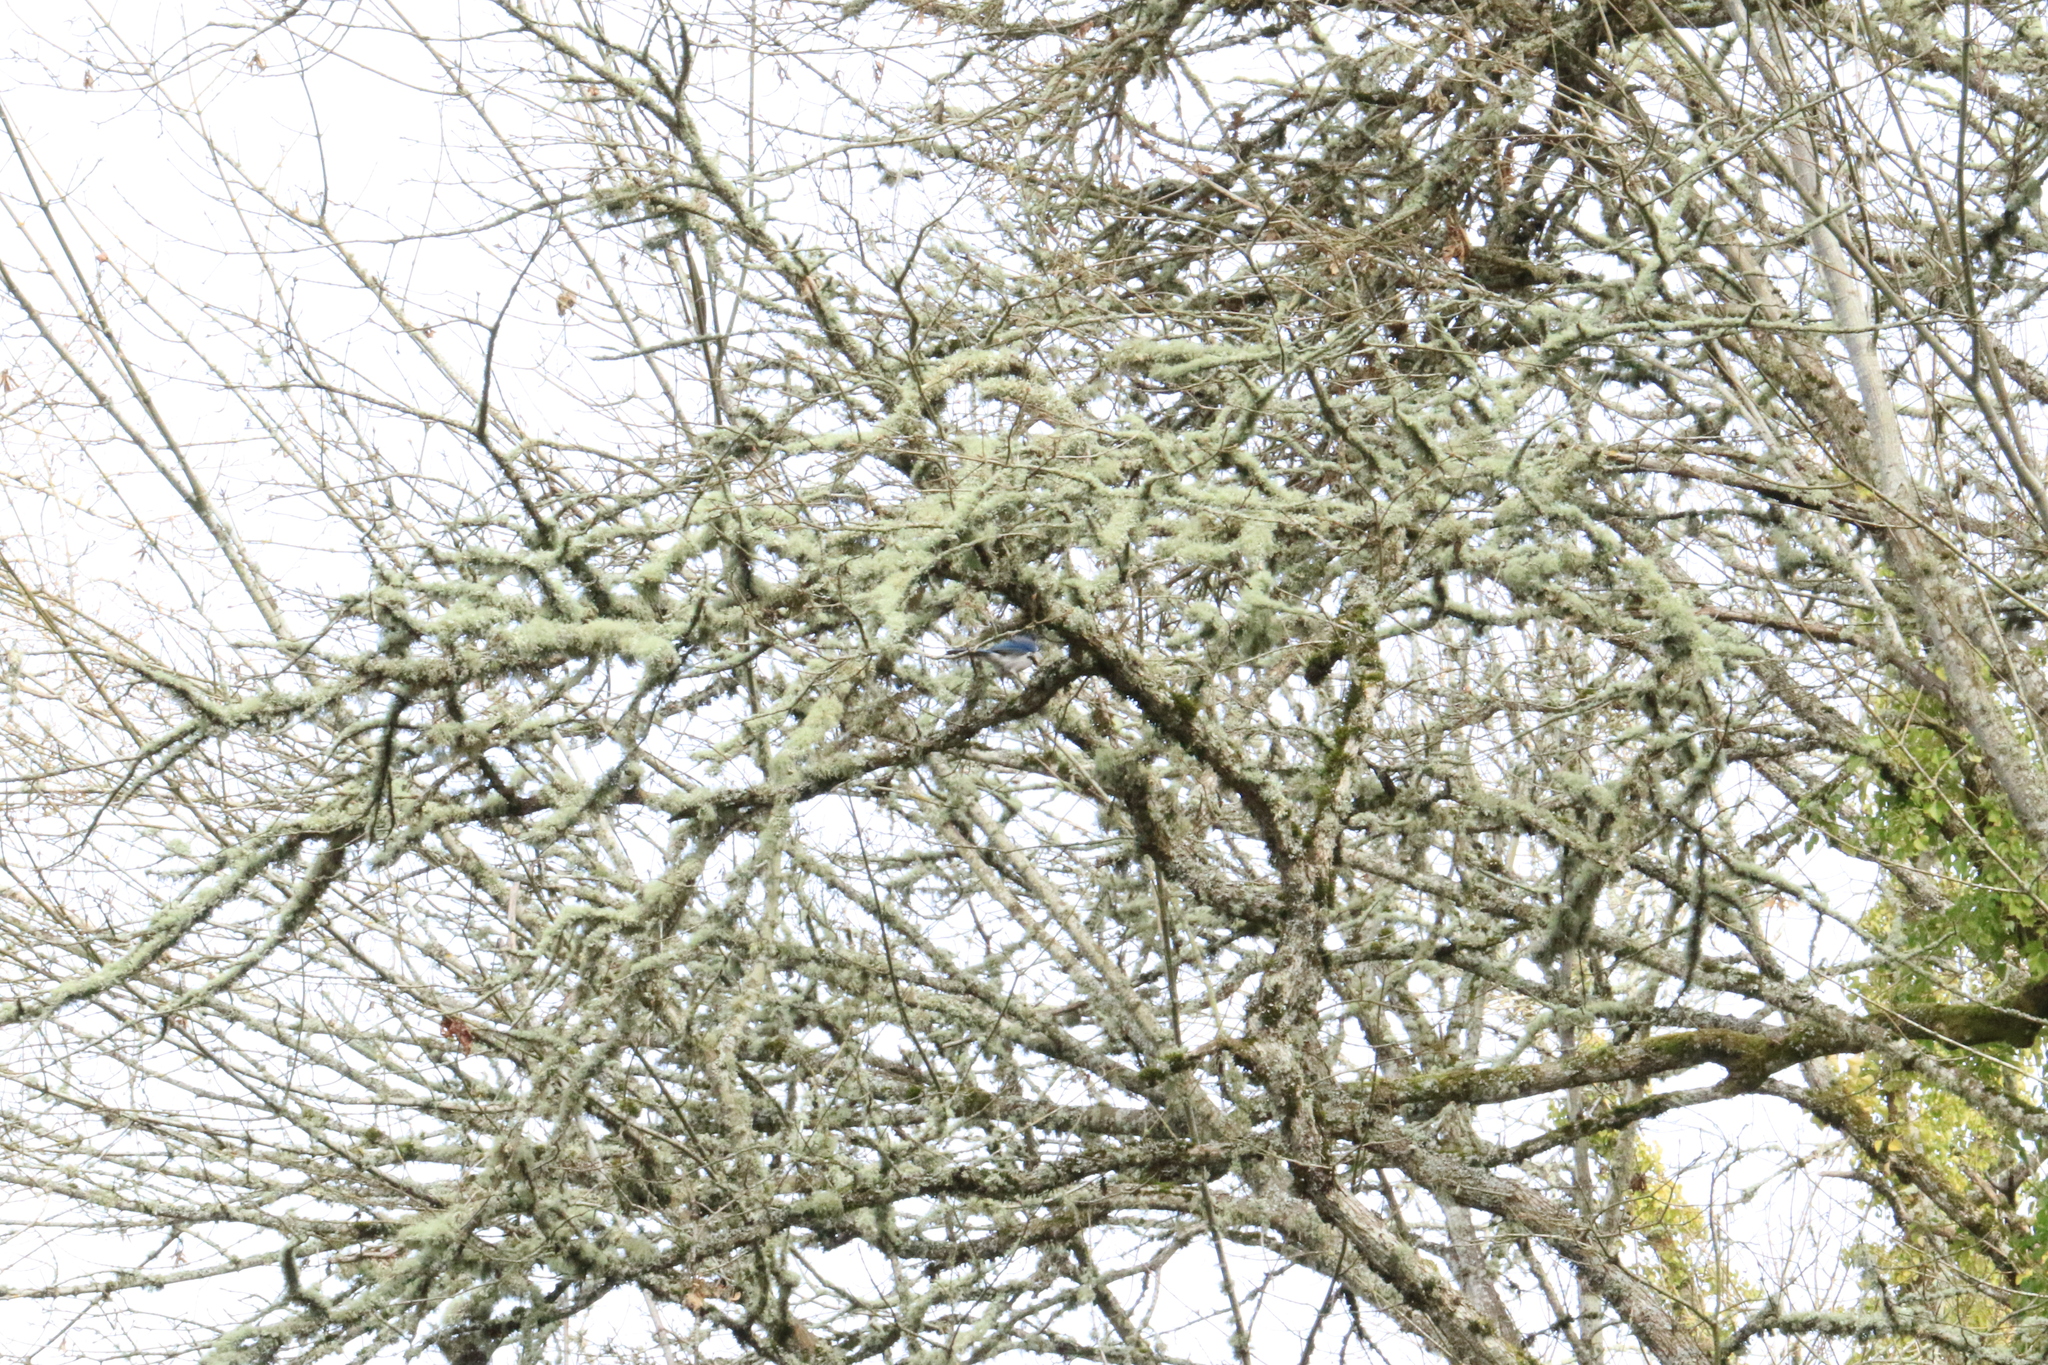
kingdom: Animalia
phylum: Chordata
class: Aves
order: Passeriformes
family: Corvidae
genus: Aphelocoma
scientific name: Aphelocoma californica
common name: California scrub-jay
